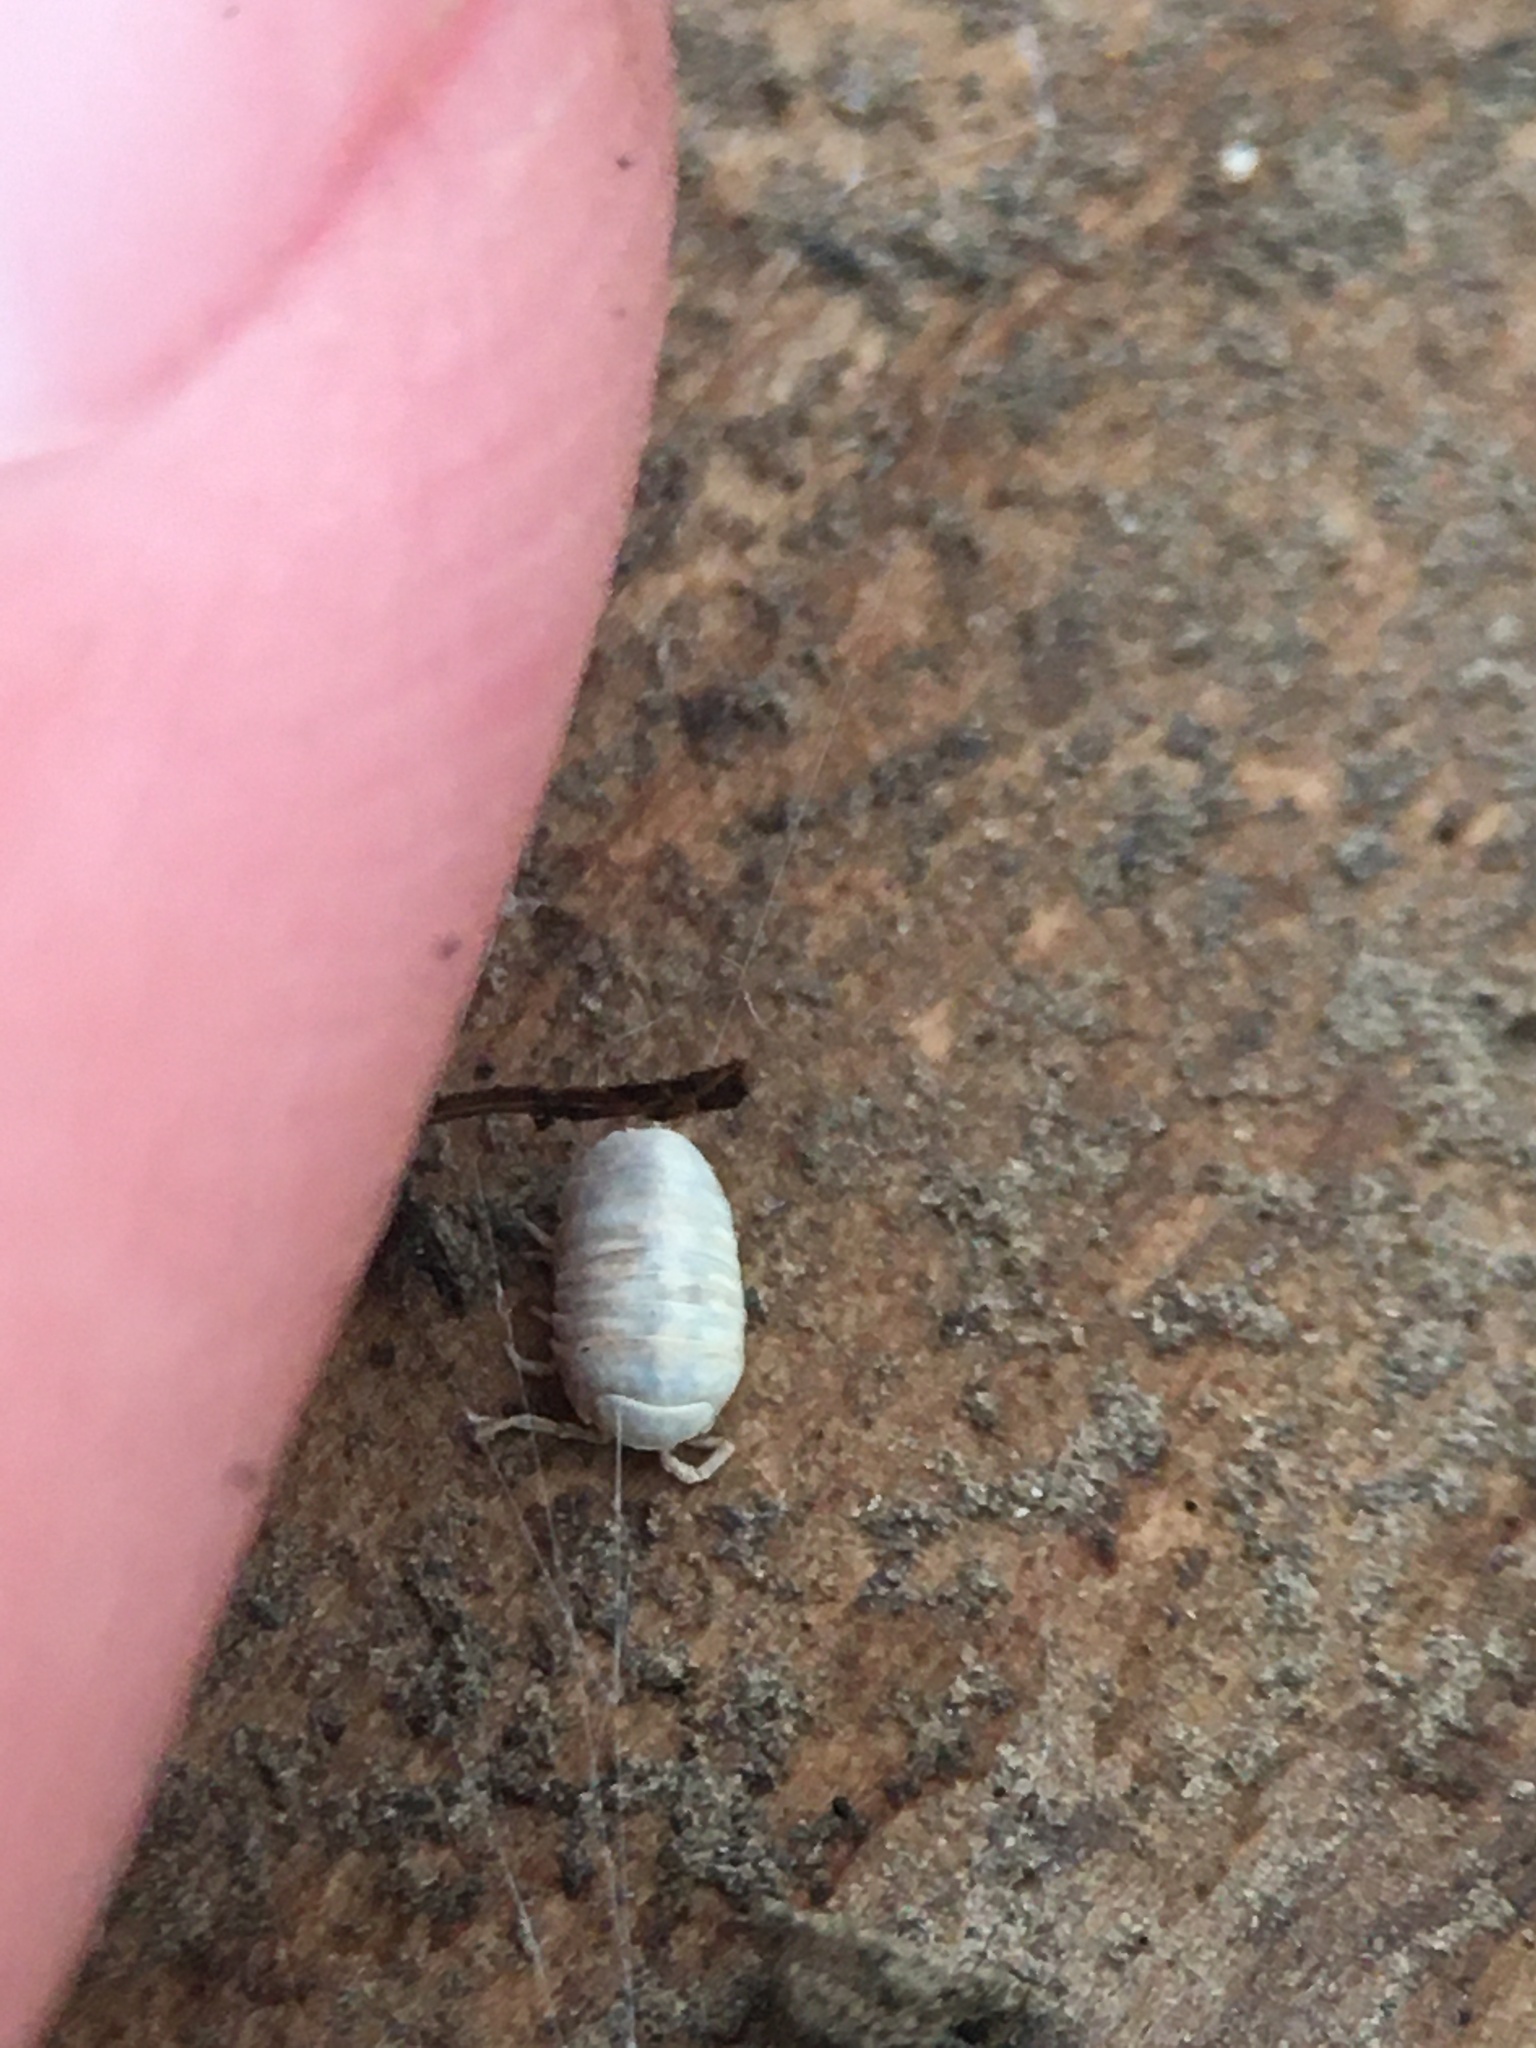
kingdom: Animalia
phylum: Arthropoda
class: Malacostraca
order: Isopoda
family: Armadillidiidae
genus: Armadillidium
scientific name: Armadillidium vulgare
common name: Common pill woodlouse
